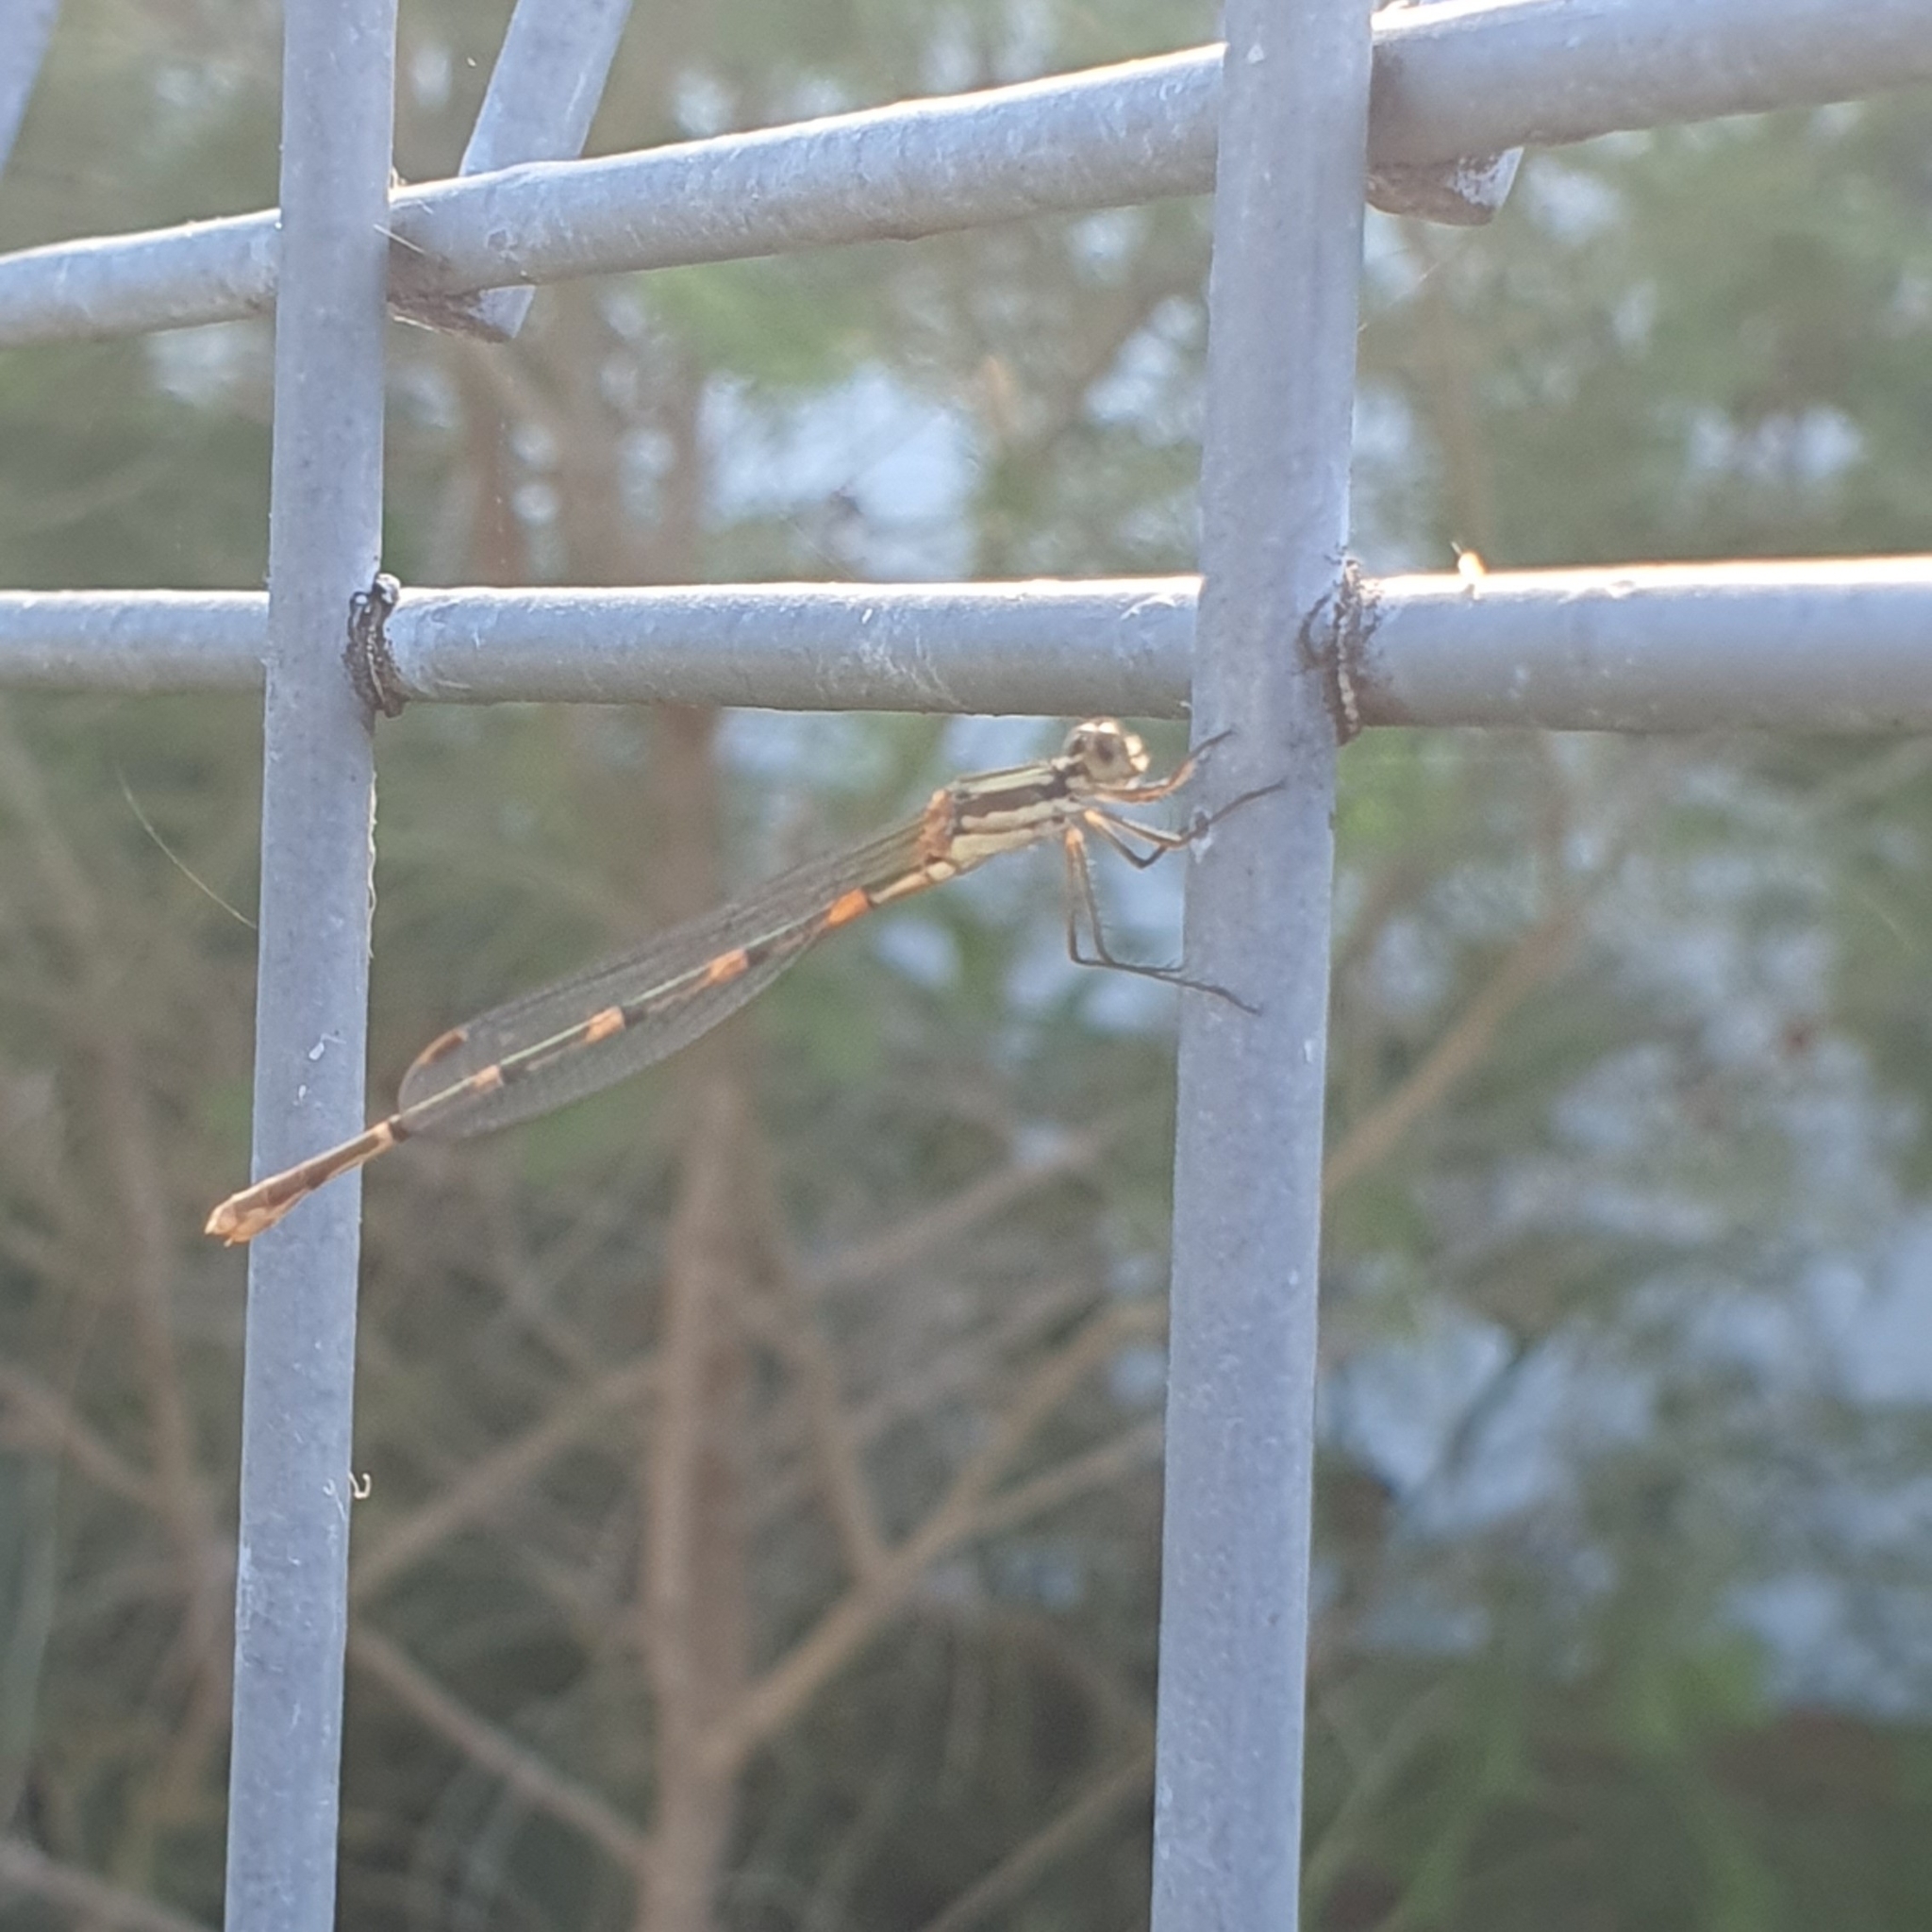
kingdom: Animalia
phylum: Arthropoda
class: Insecta
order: Odonata
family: Lestidae
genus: Austrolestes
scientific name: Austrolestes leda
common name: Wandering ringtail
